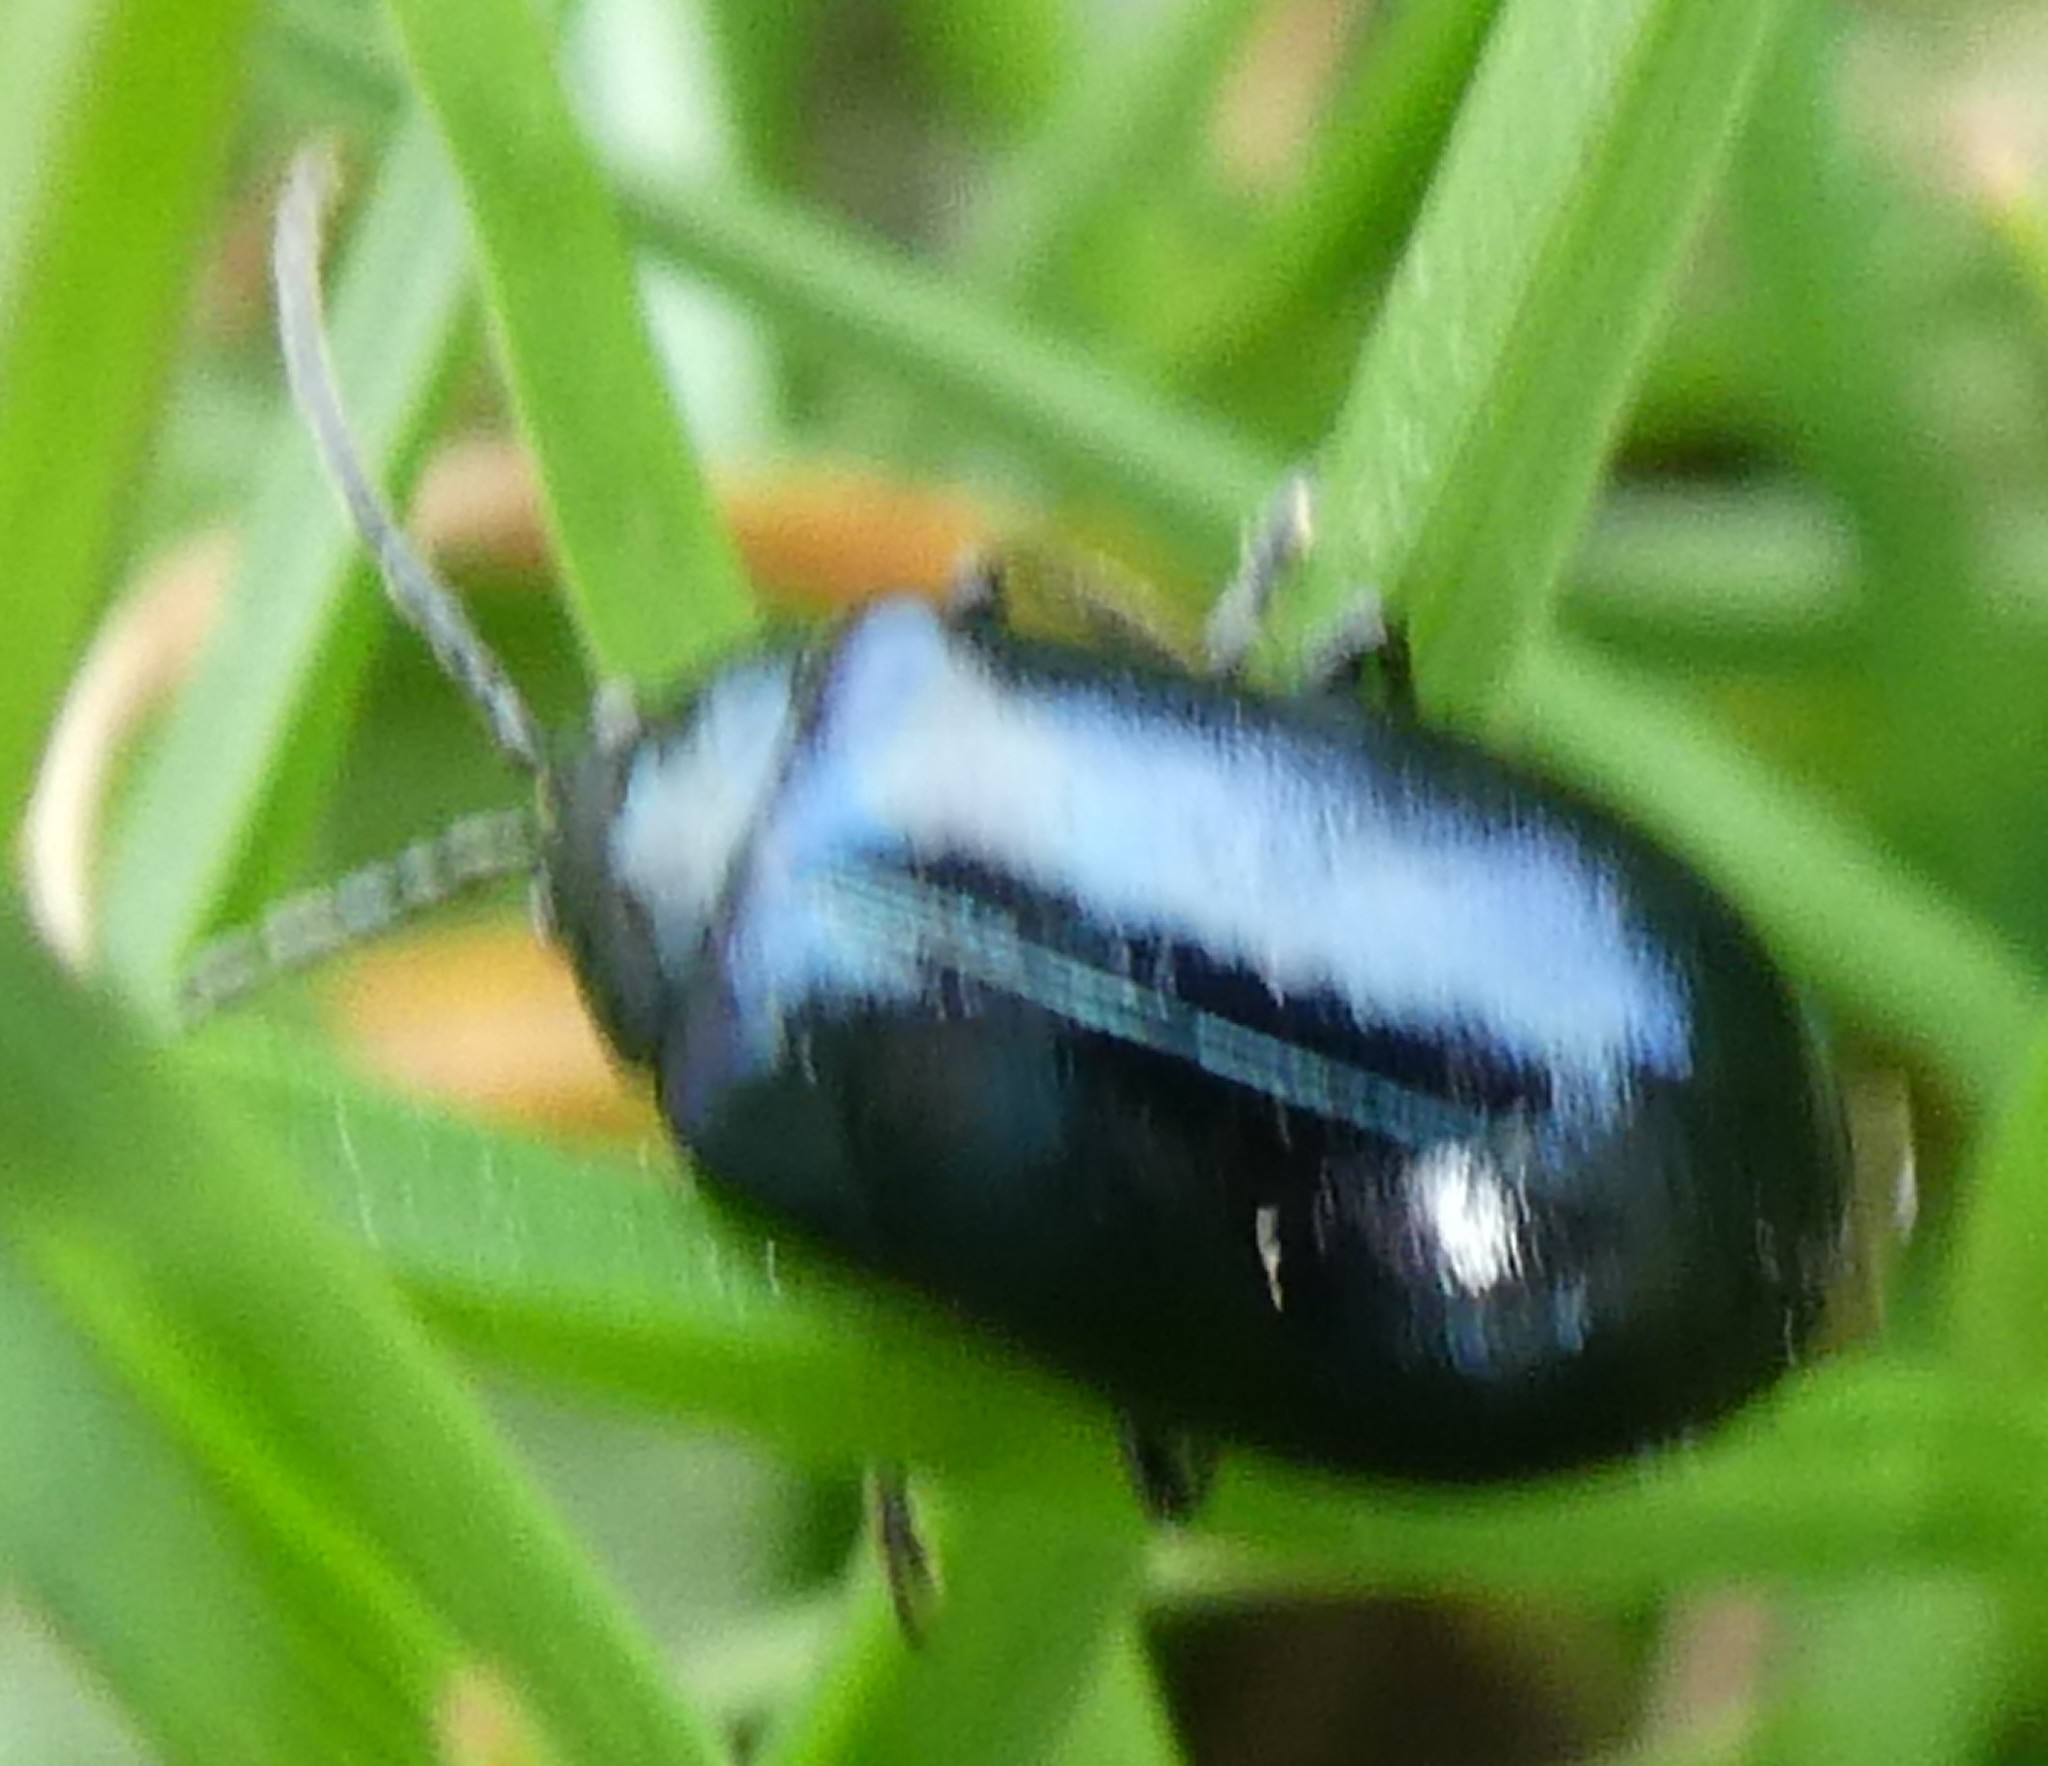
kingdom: Animalia
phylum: Arthropoda
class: Insecta
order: Coleoptera
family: Chrysomelidae
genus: Agelastica
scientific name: Agelastica alni
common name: Alder leaf beetle
